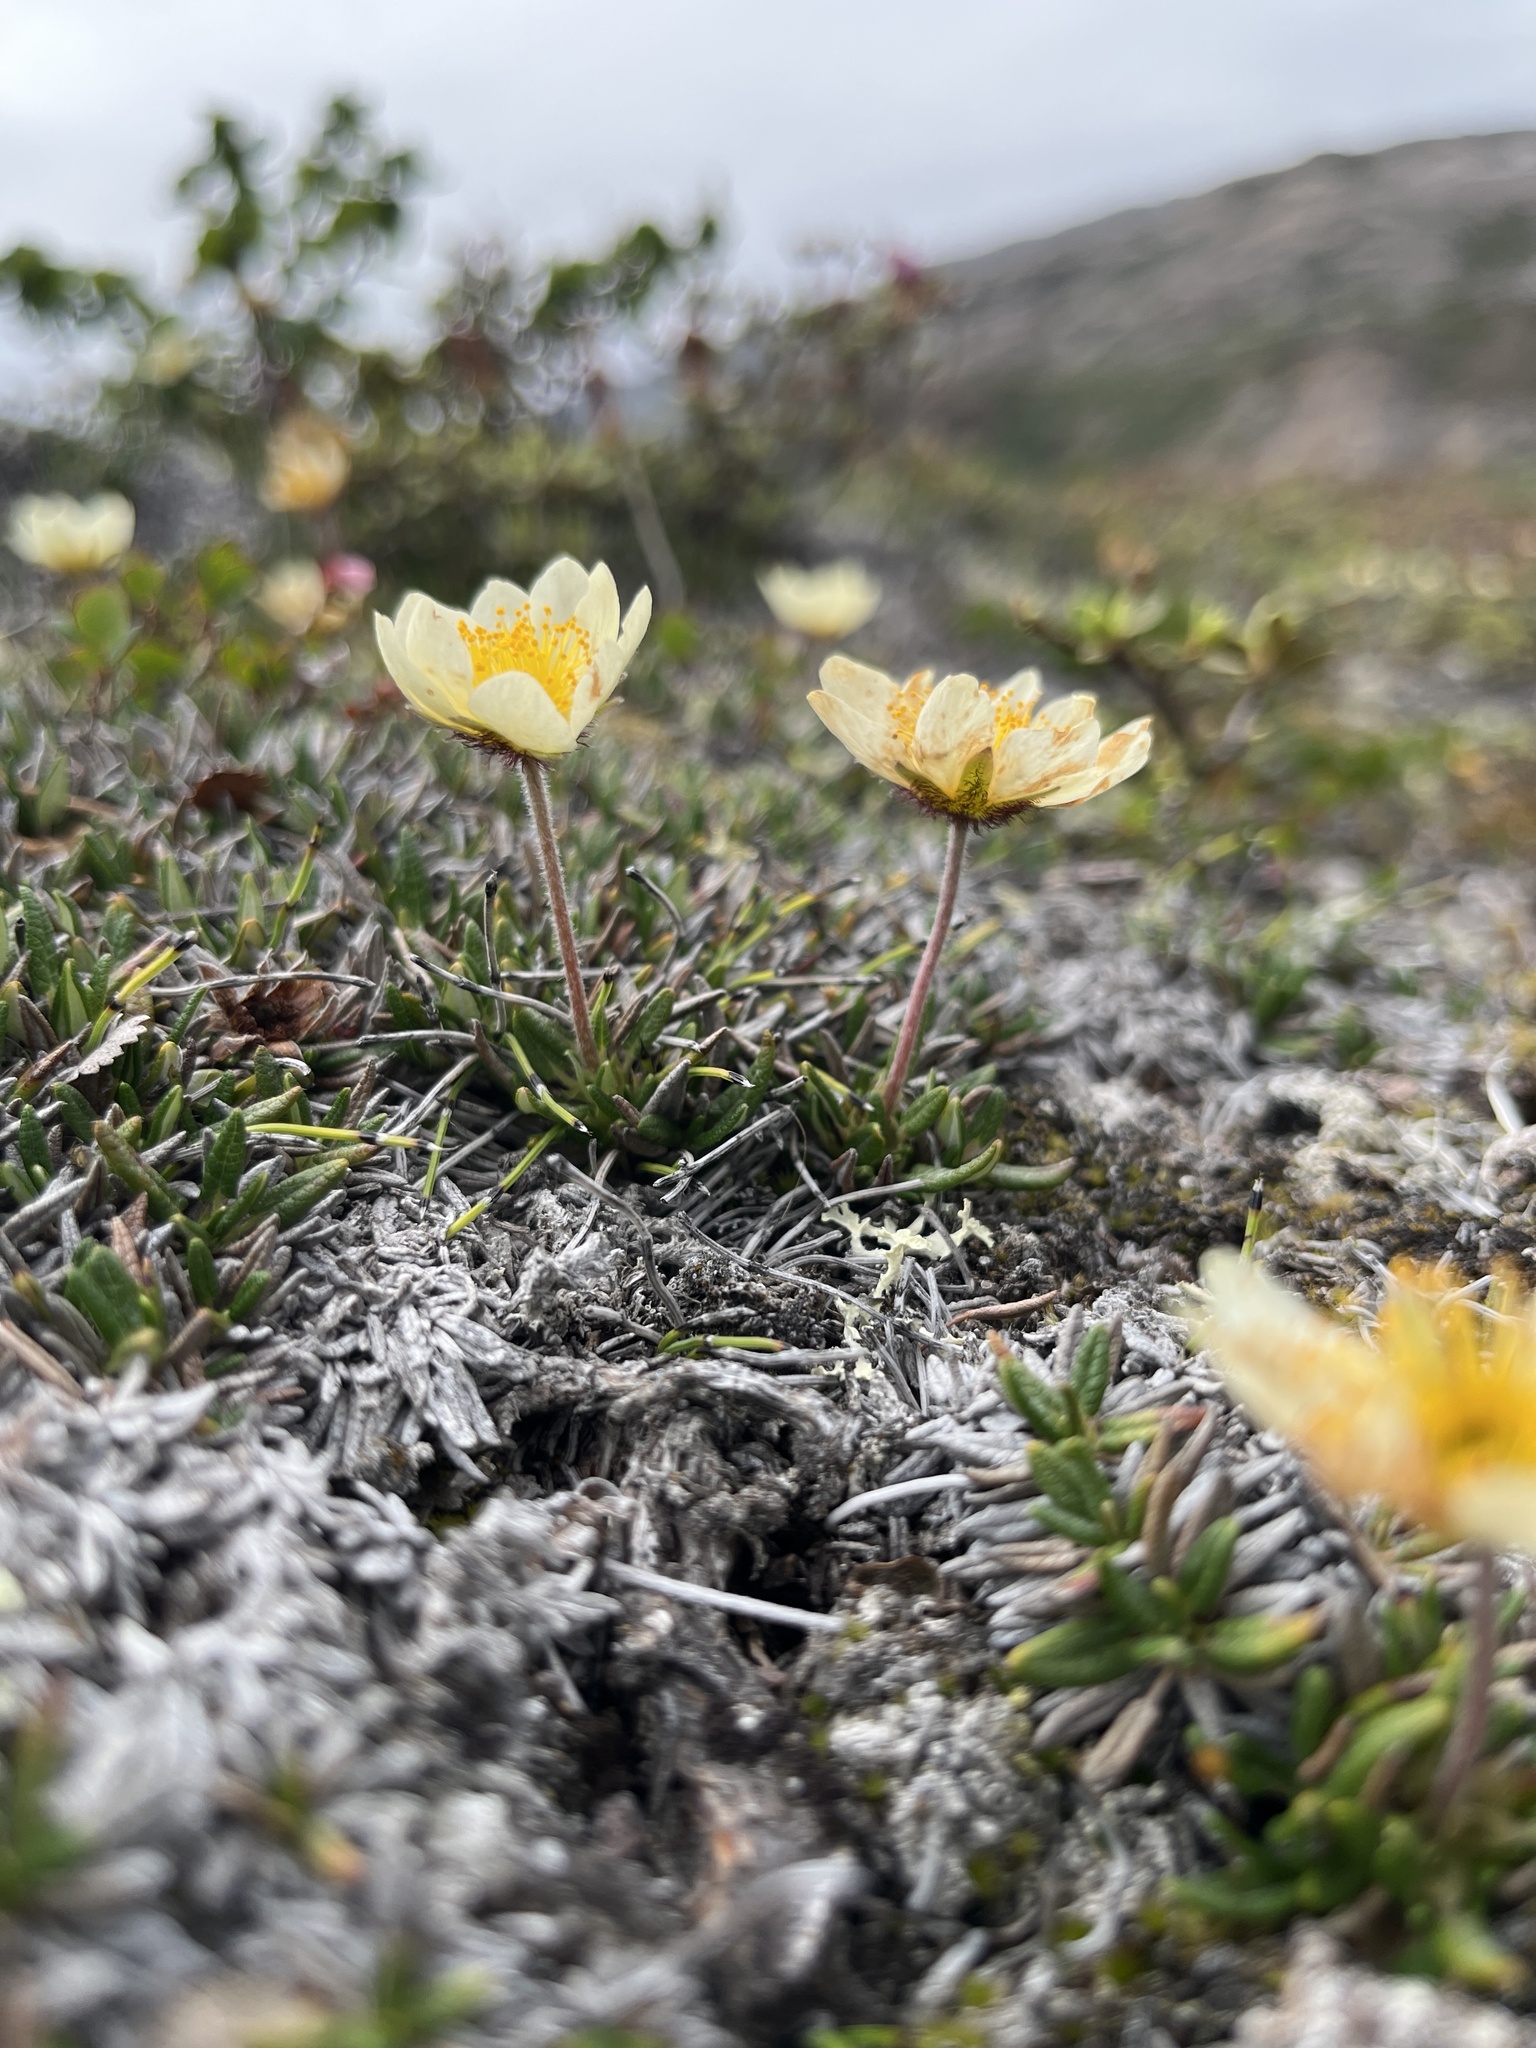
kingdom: Plantae
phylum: Tracheophyta
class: Magnoliopsida
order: Rosales
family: Rosaceae
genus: Dryas
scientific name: Dryas integrifolia
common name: Entire-leaved mountain avens
